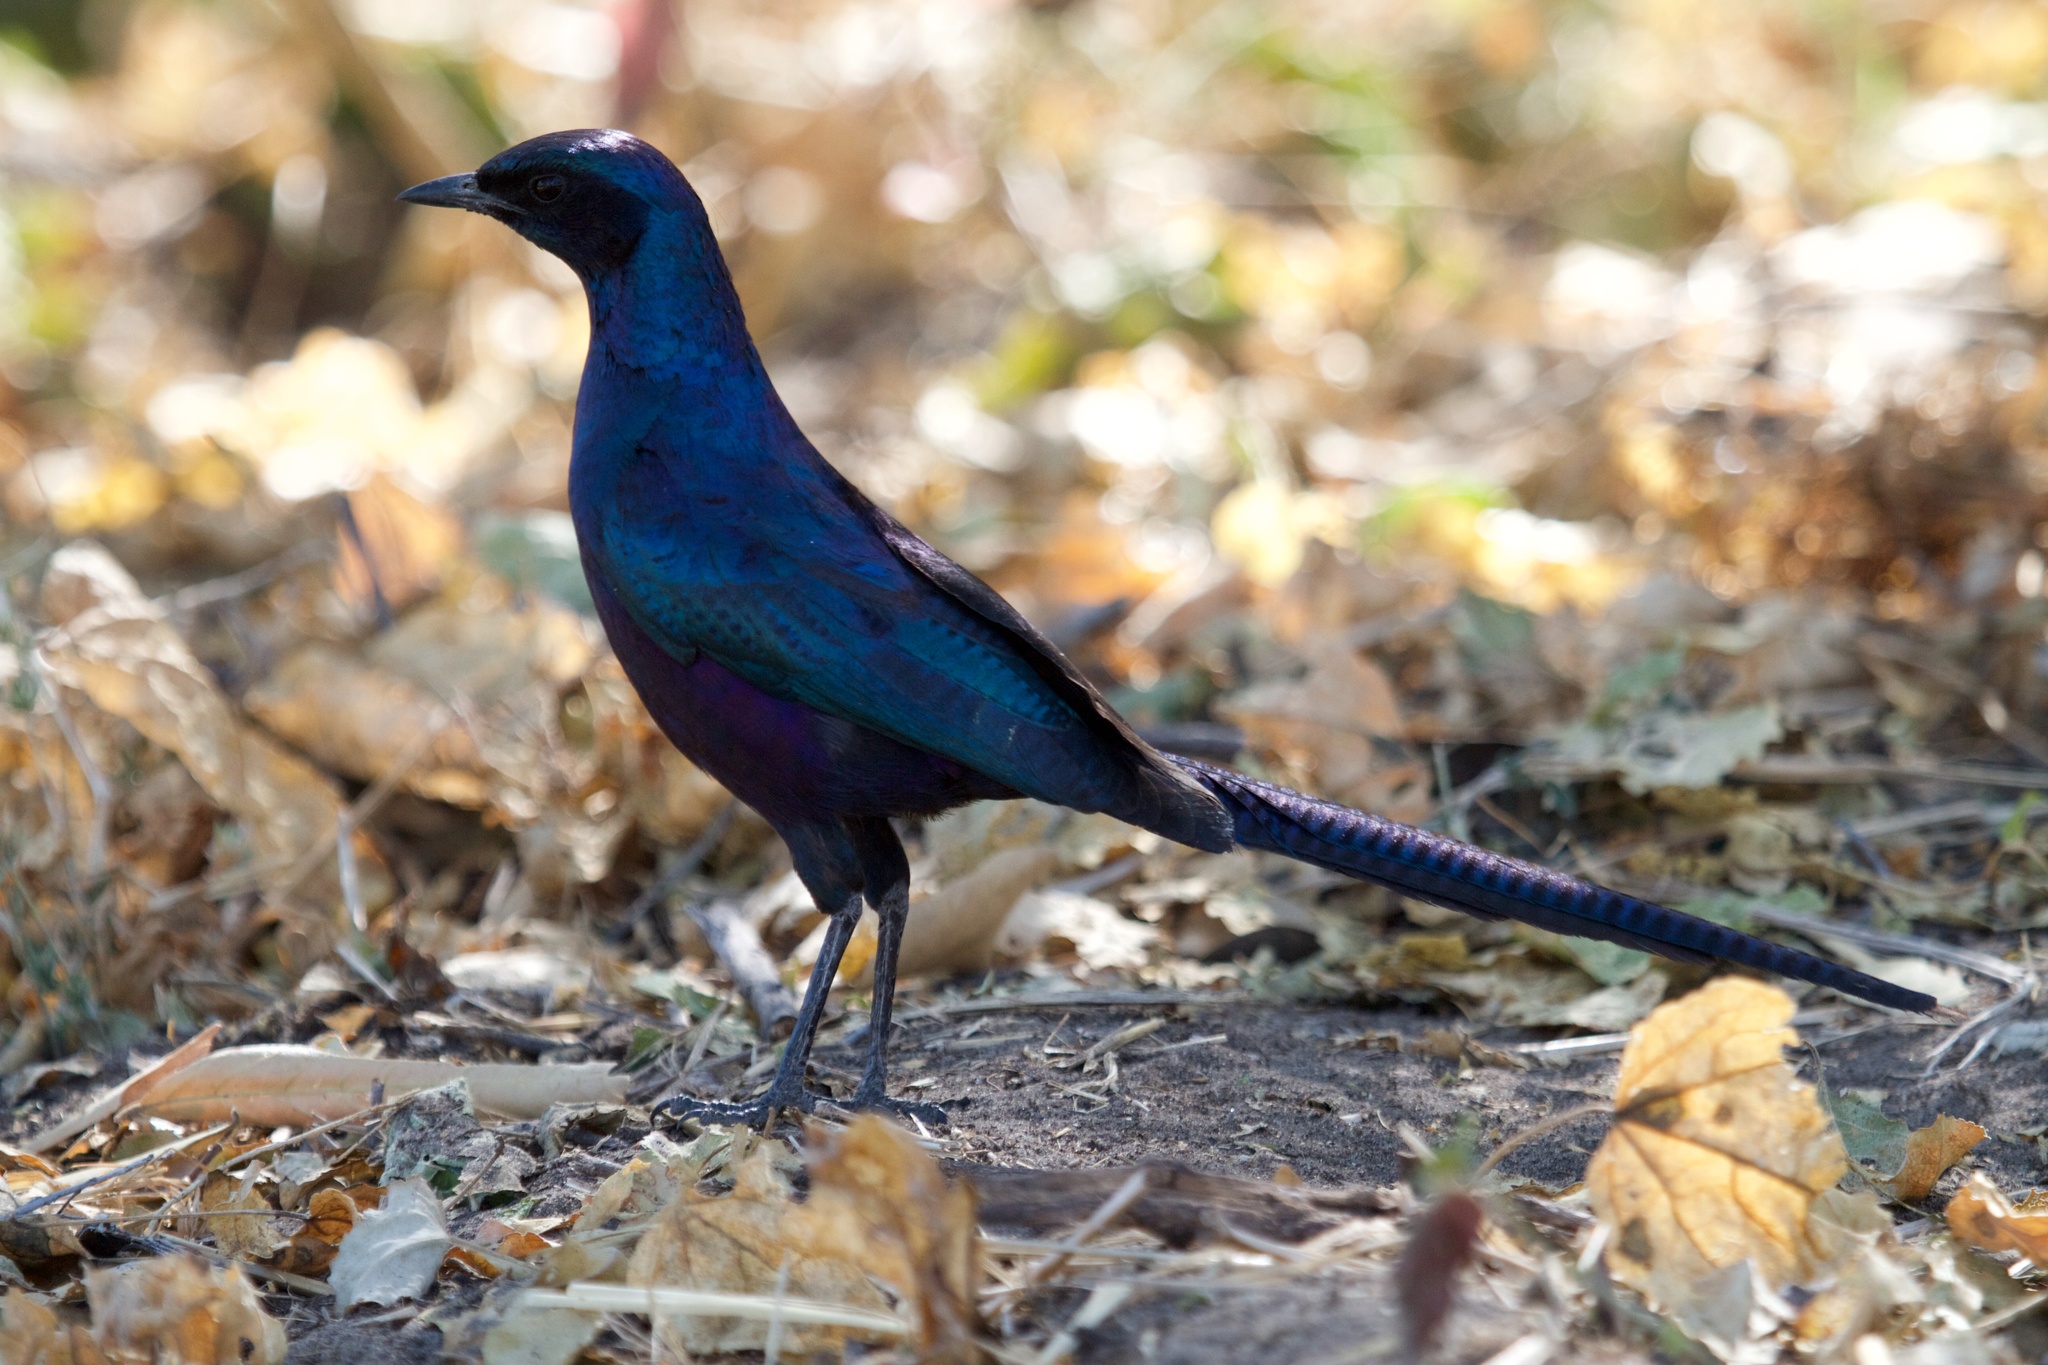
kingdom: Animalia
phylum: Chordata
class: Aves
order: Passeriformes
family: Sturnidae
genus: Lamprotornis
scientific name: Lamprotornis mevesii
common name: Meves's starling
